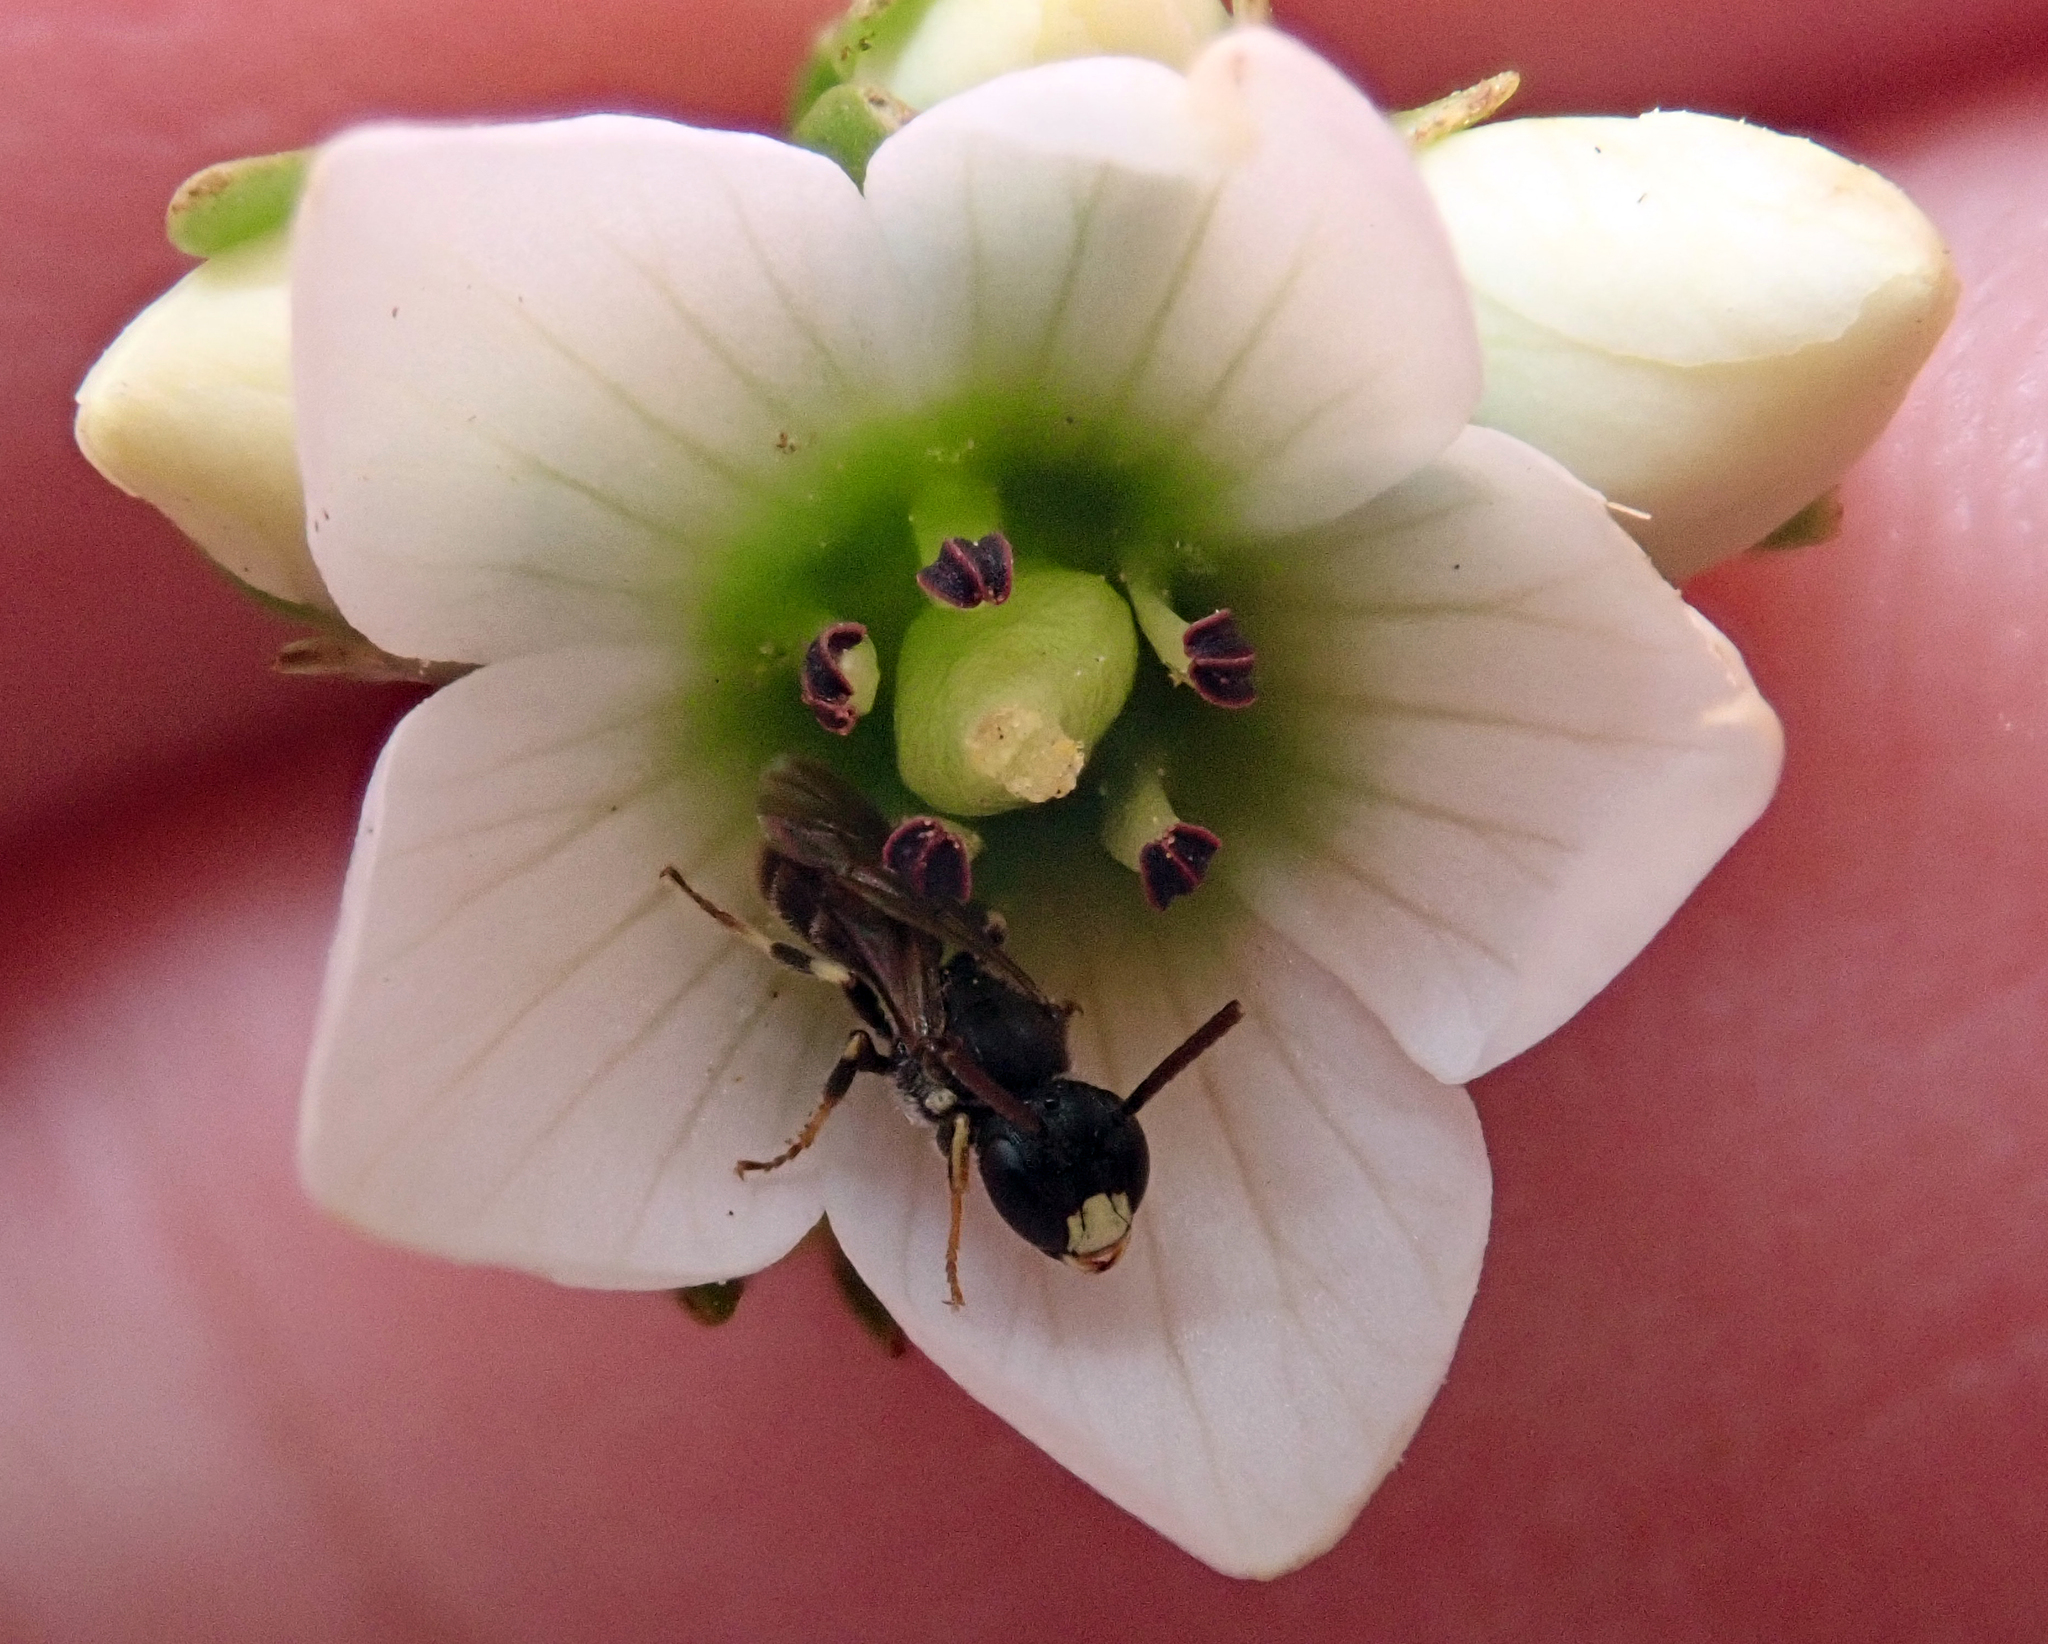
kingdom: Animalia
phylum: Arthropoda
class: Insecta
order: Hymenoptera
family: Colletidae
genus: Hylaeus
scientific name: Hylaeus asperithorax
